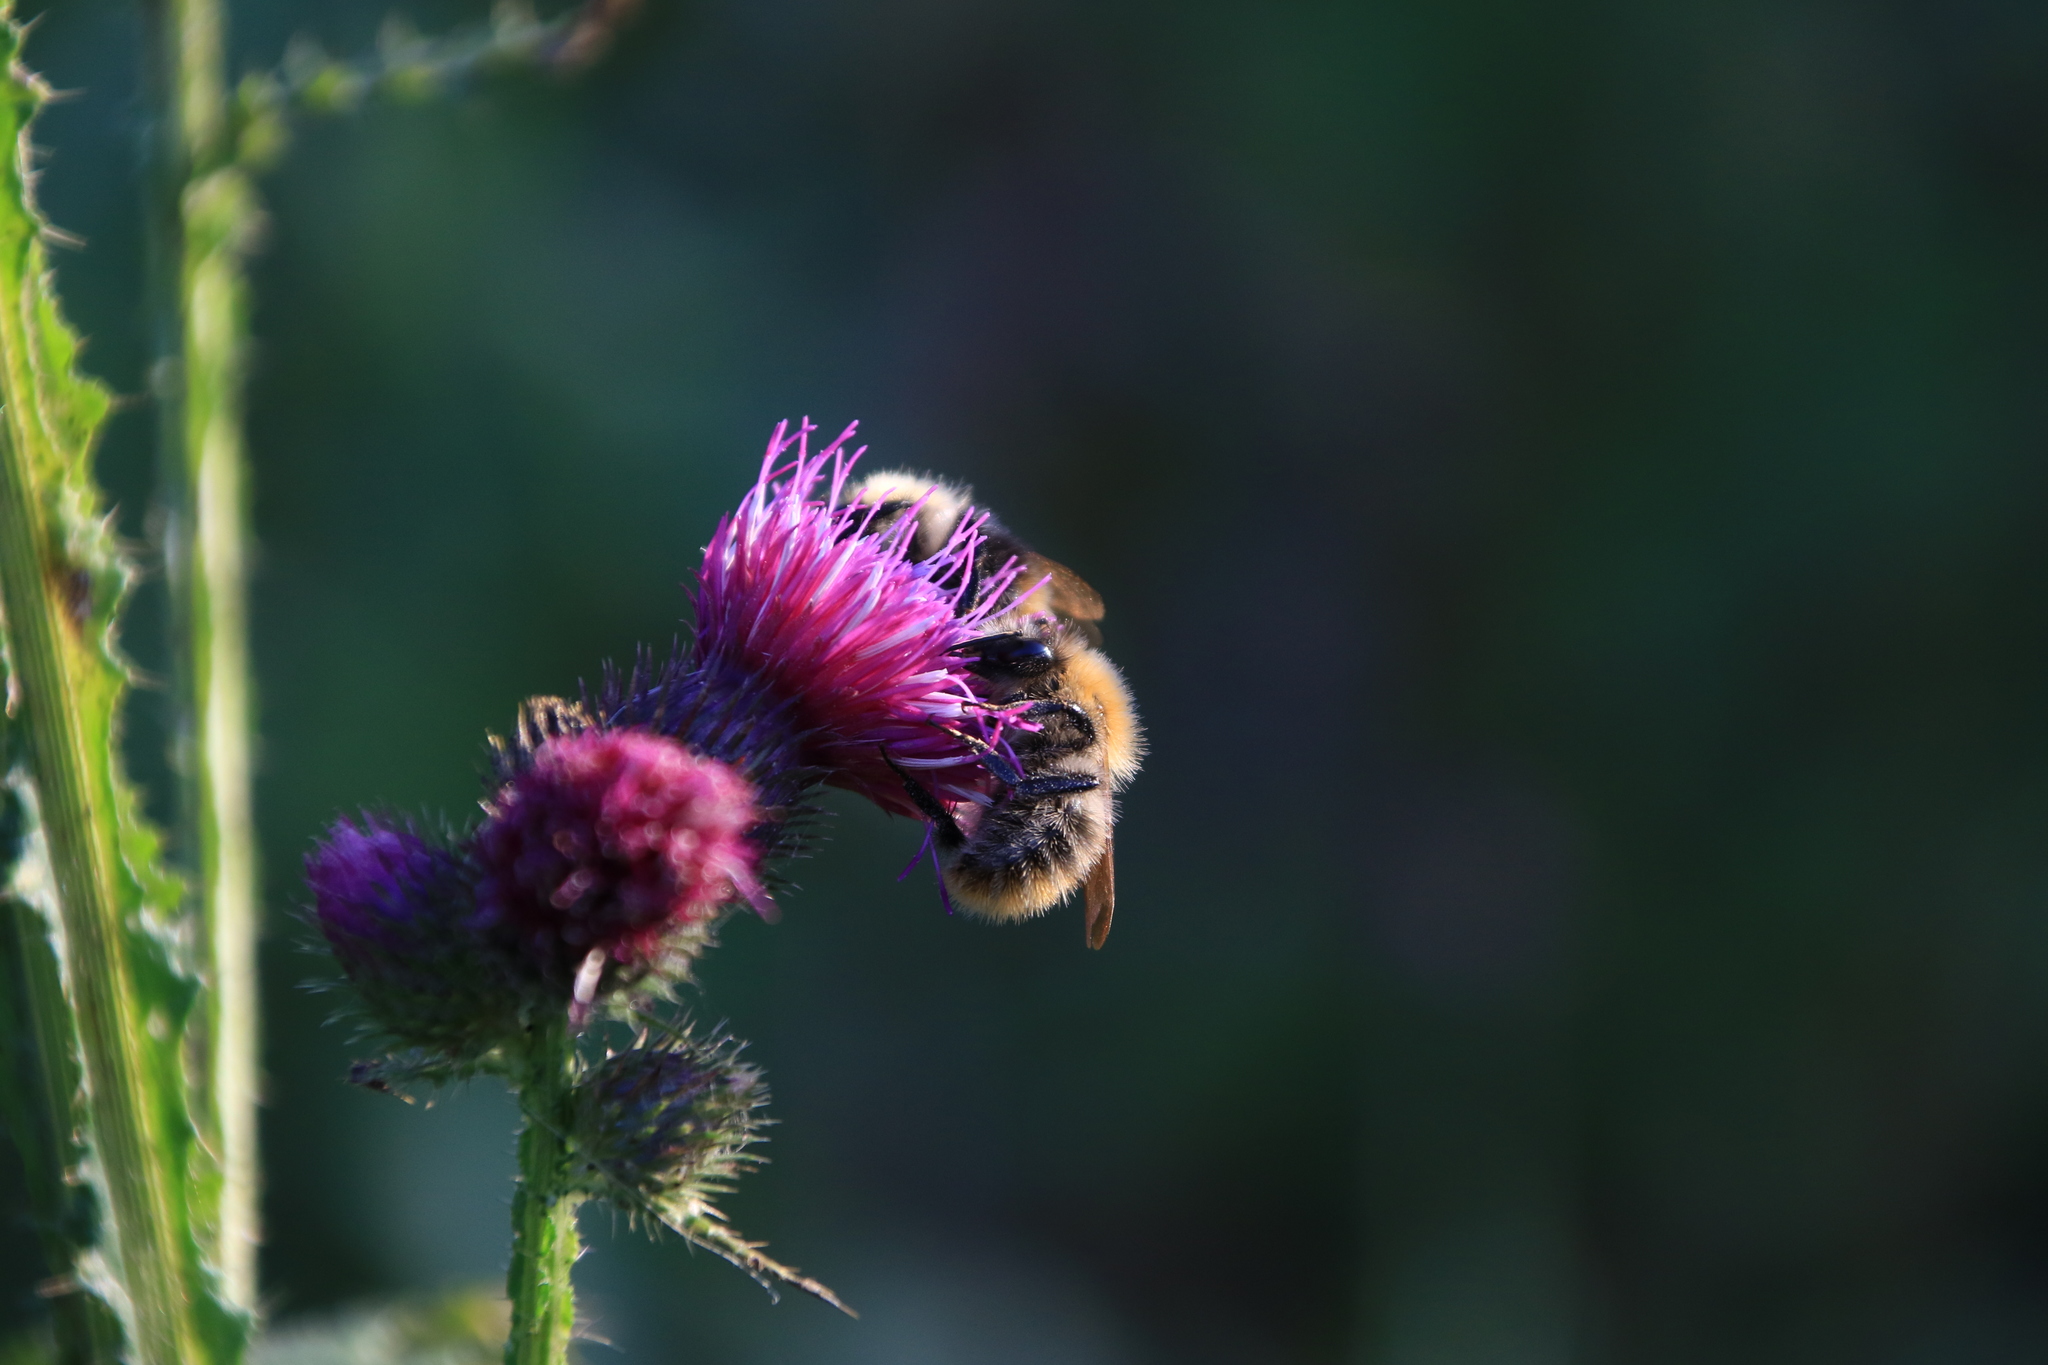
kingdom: Animalia
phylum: Arthropoda
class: Insecta
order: Hymenoptera
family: Apidae
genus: Bombus
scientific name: Bombus pascuorum
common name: Common carder bee
